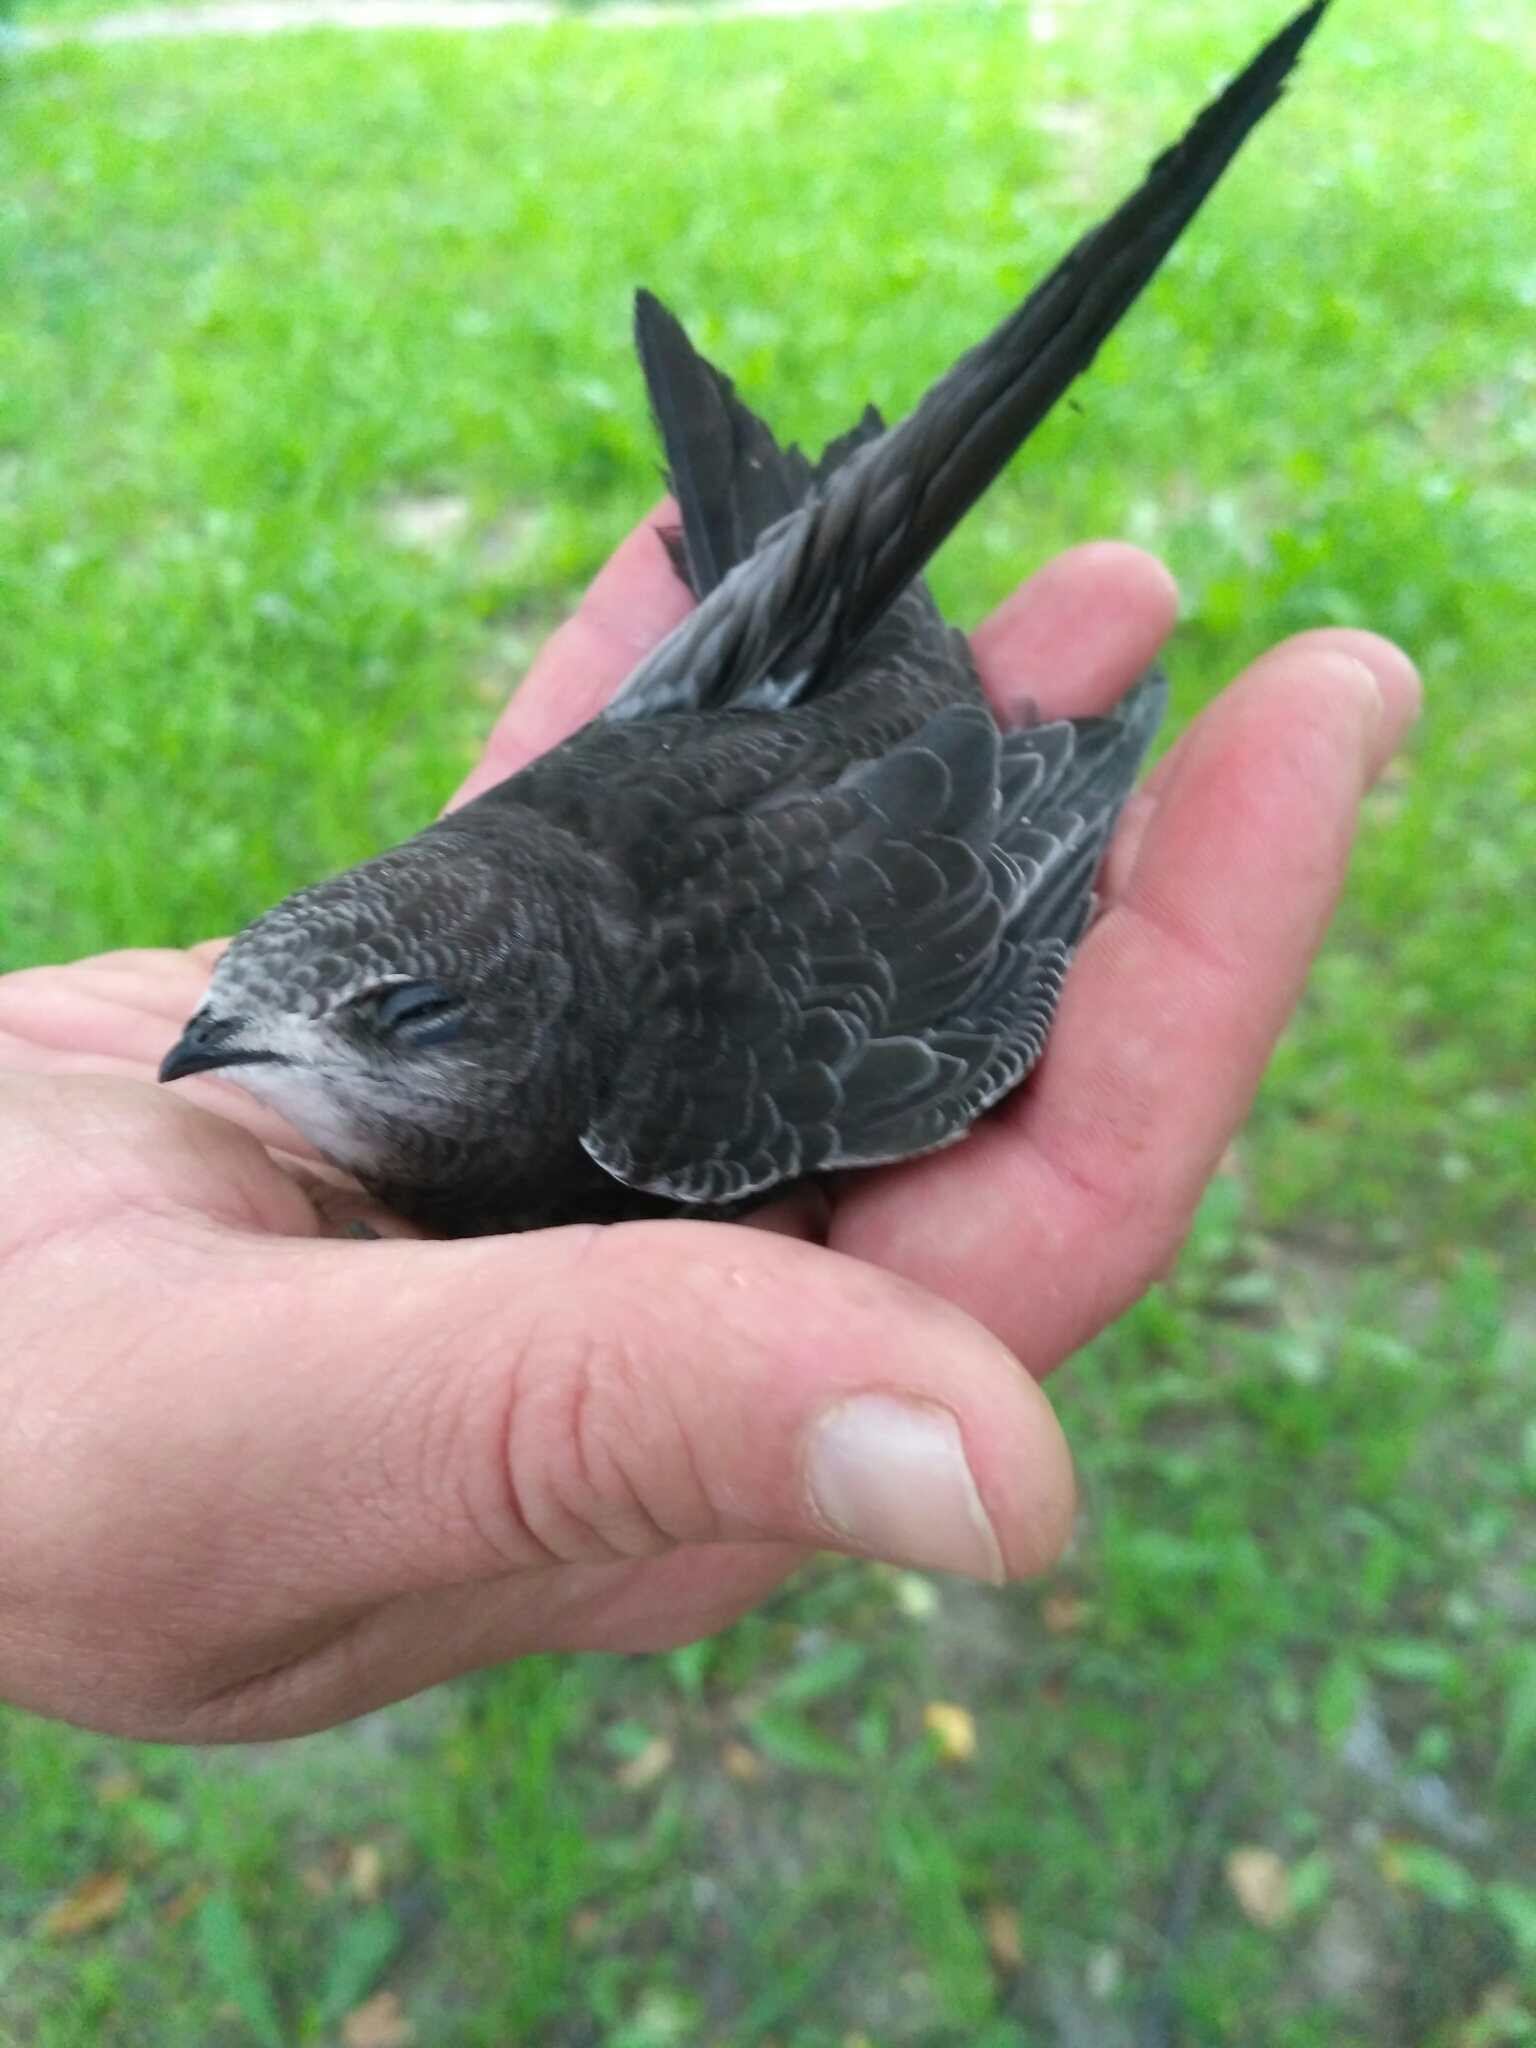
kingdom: Animalia
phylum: Chordata
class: Aves
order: Apodiformes
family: Apodidae
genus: Apus
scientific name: Apus apus
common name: Common swift
